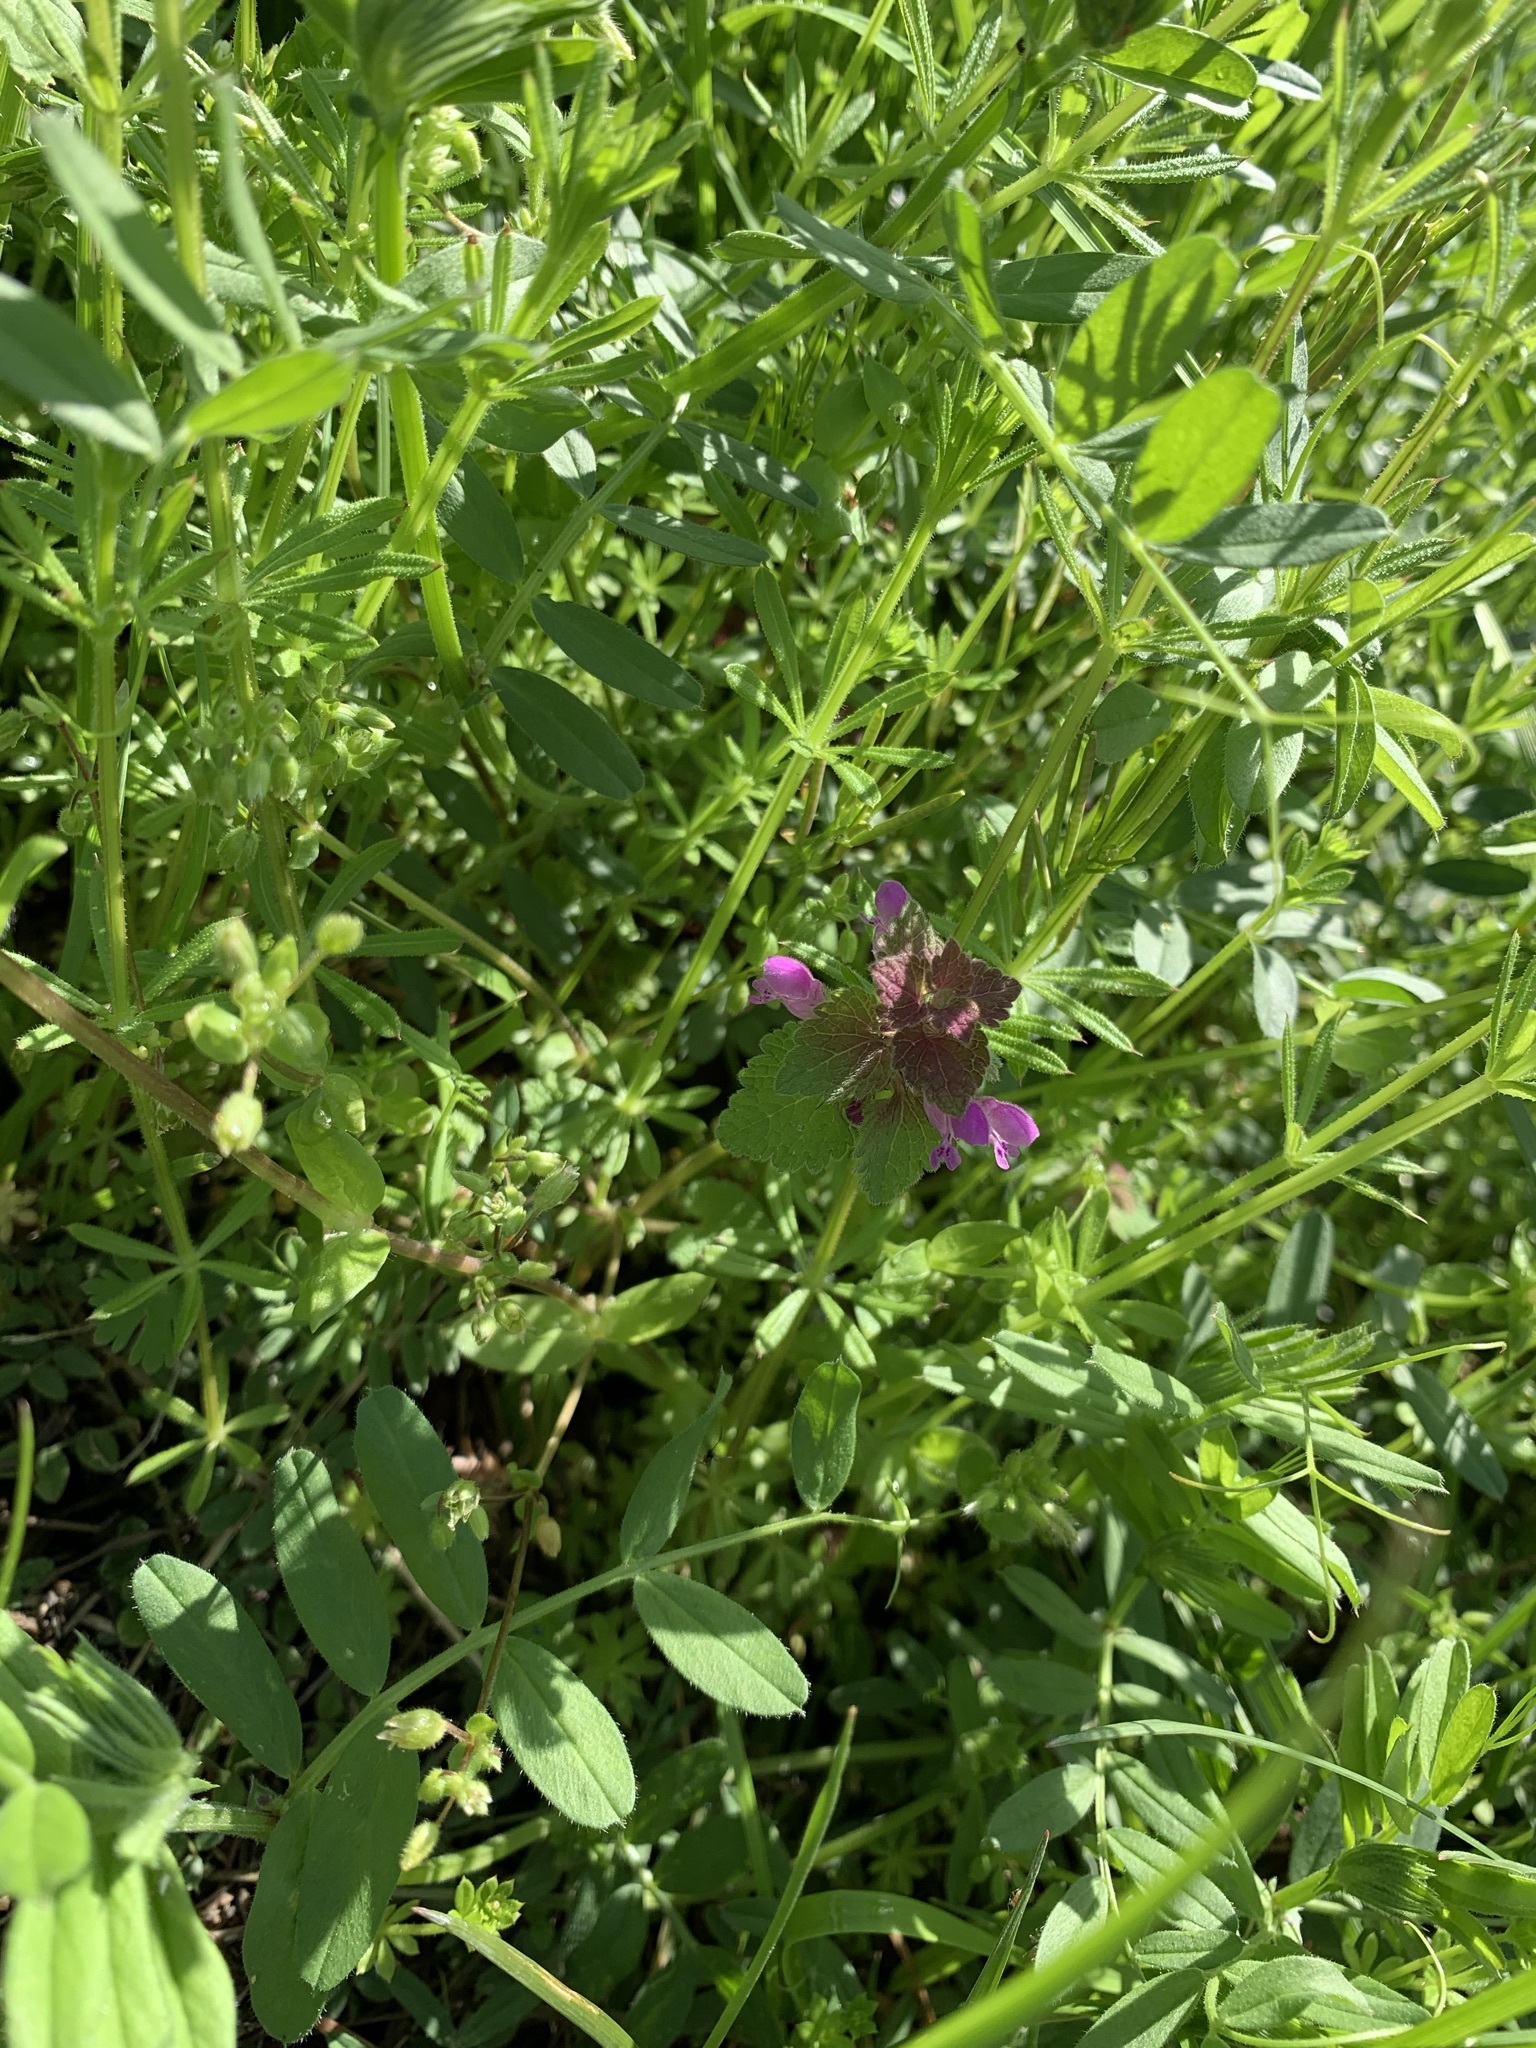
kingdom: Plantae
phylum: Tracheophyta
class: Magnoliopsida
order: Lamiales
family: Lamiaceae
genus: Lamium
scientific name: Lamium purpureum
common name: Red dead-nettle
